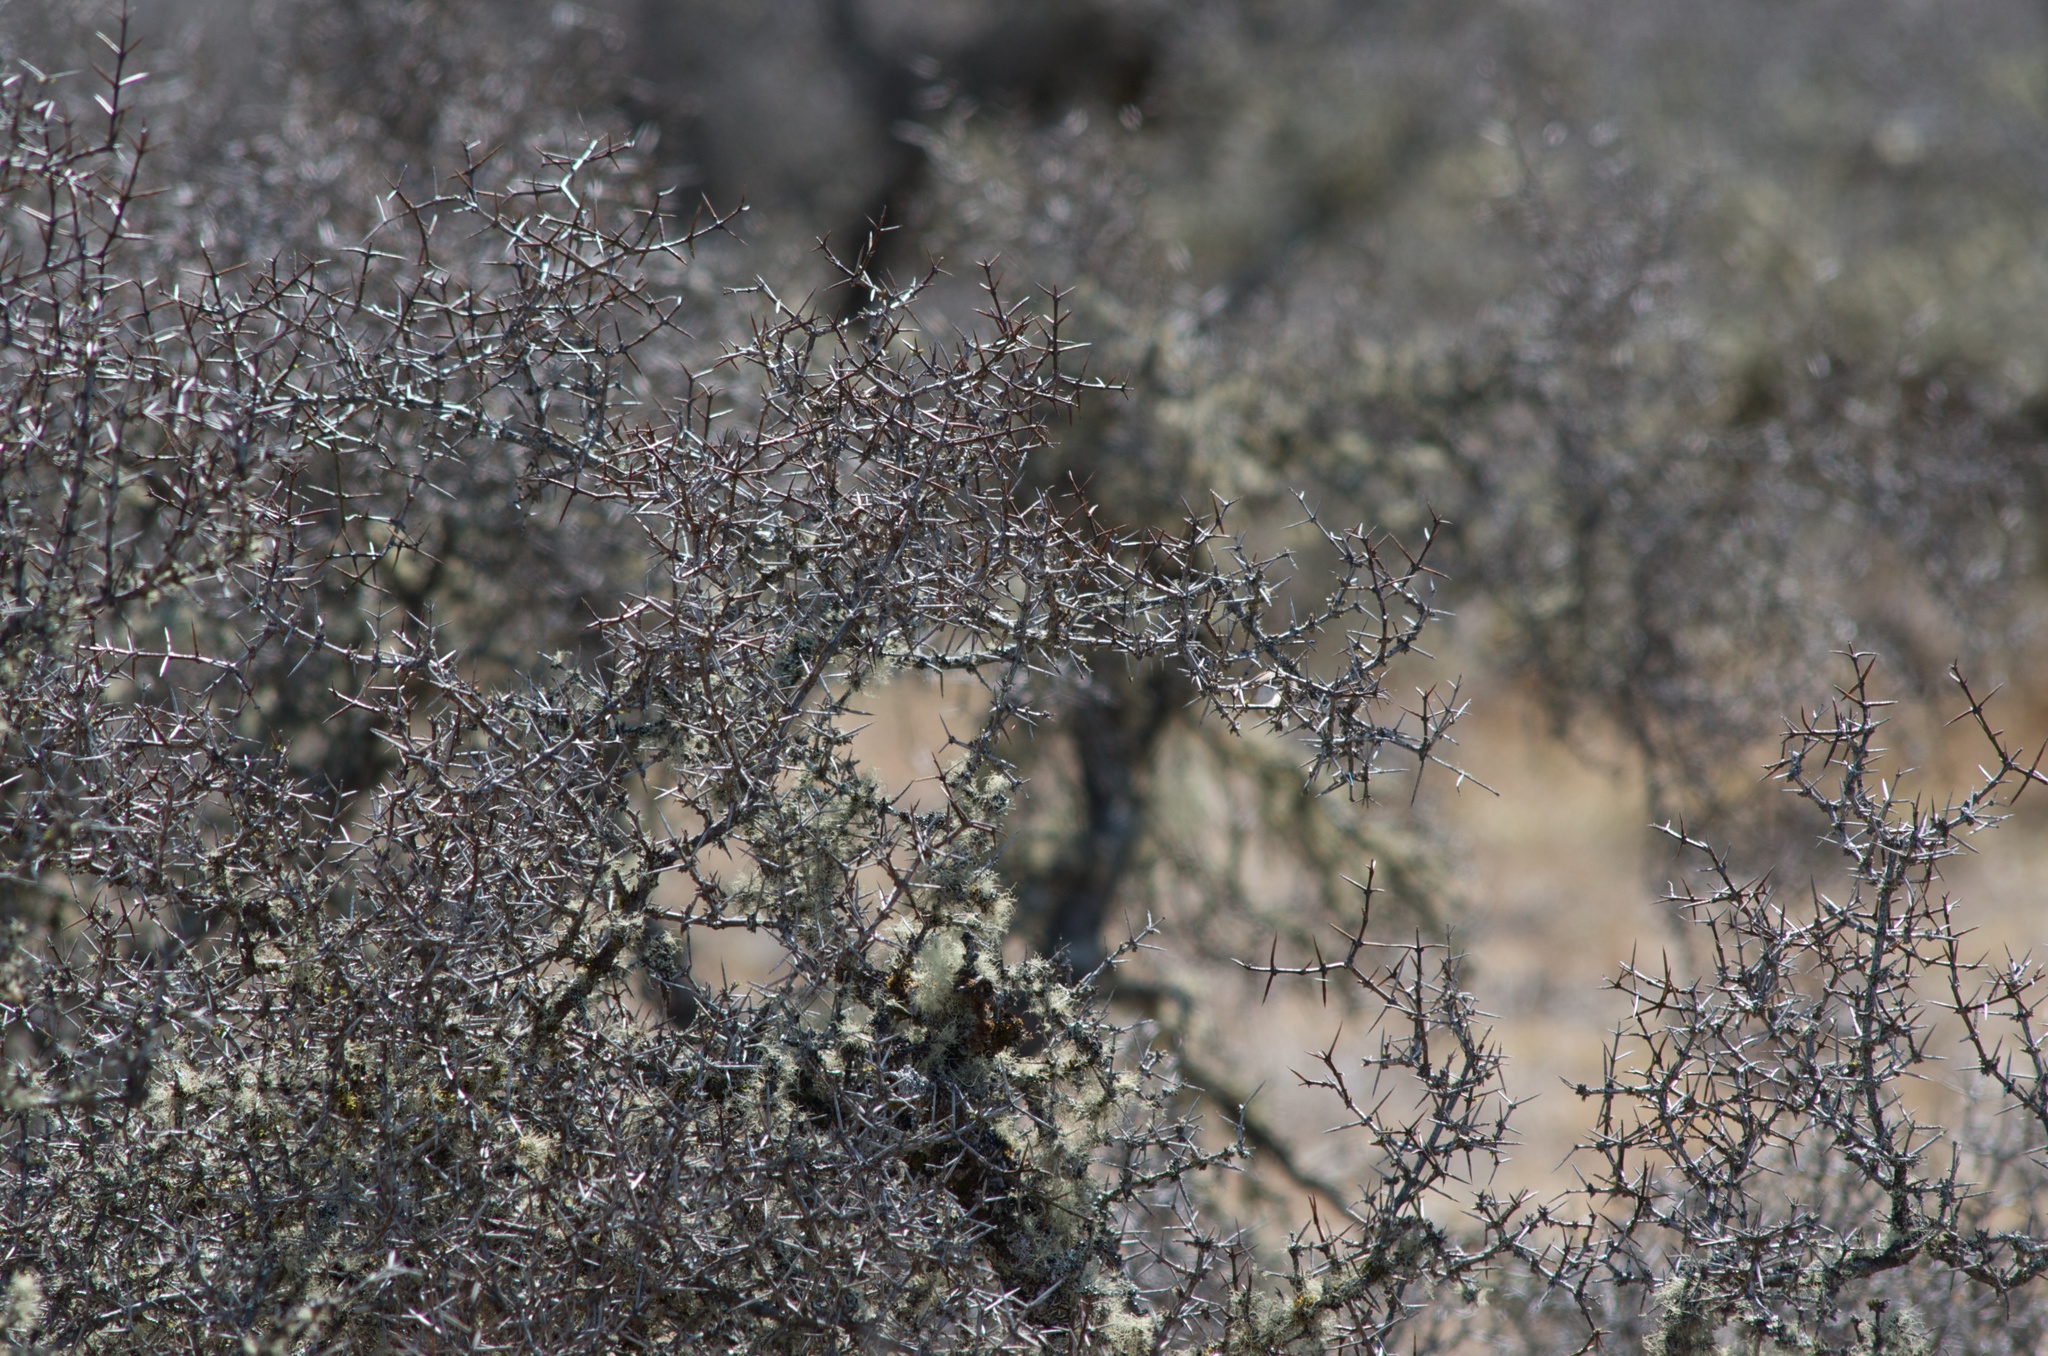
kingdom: Plantae
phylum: Tracheophyta
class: Magnoliopsida
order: Rosales
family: Rhamnaceae
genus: Discaria
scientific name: Discaria toumatou
